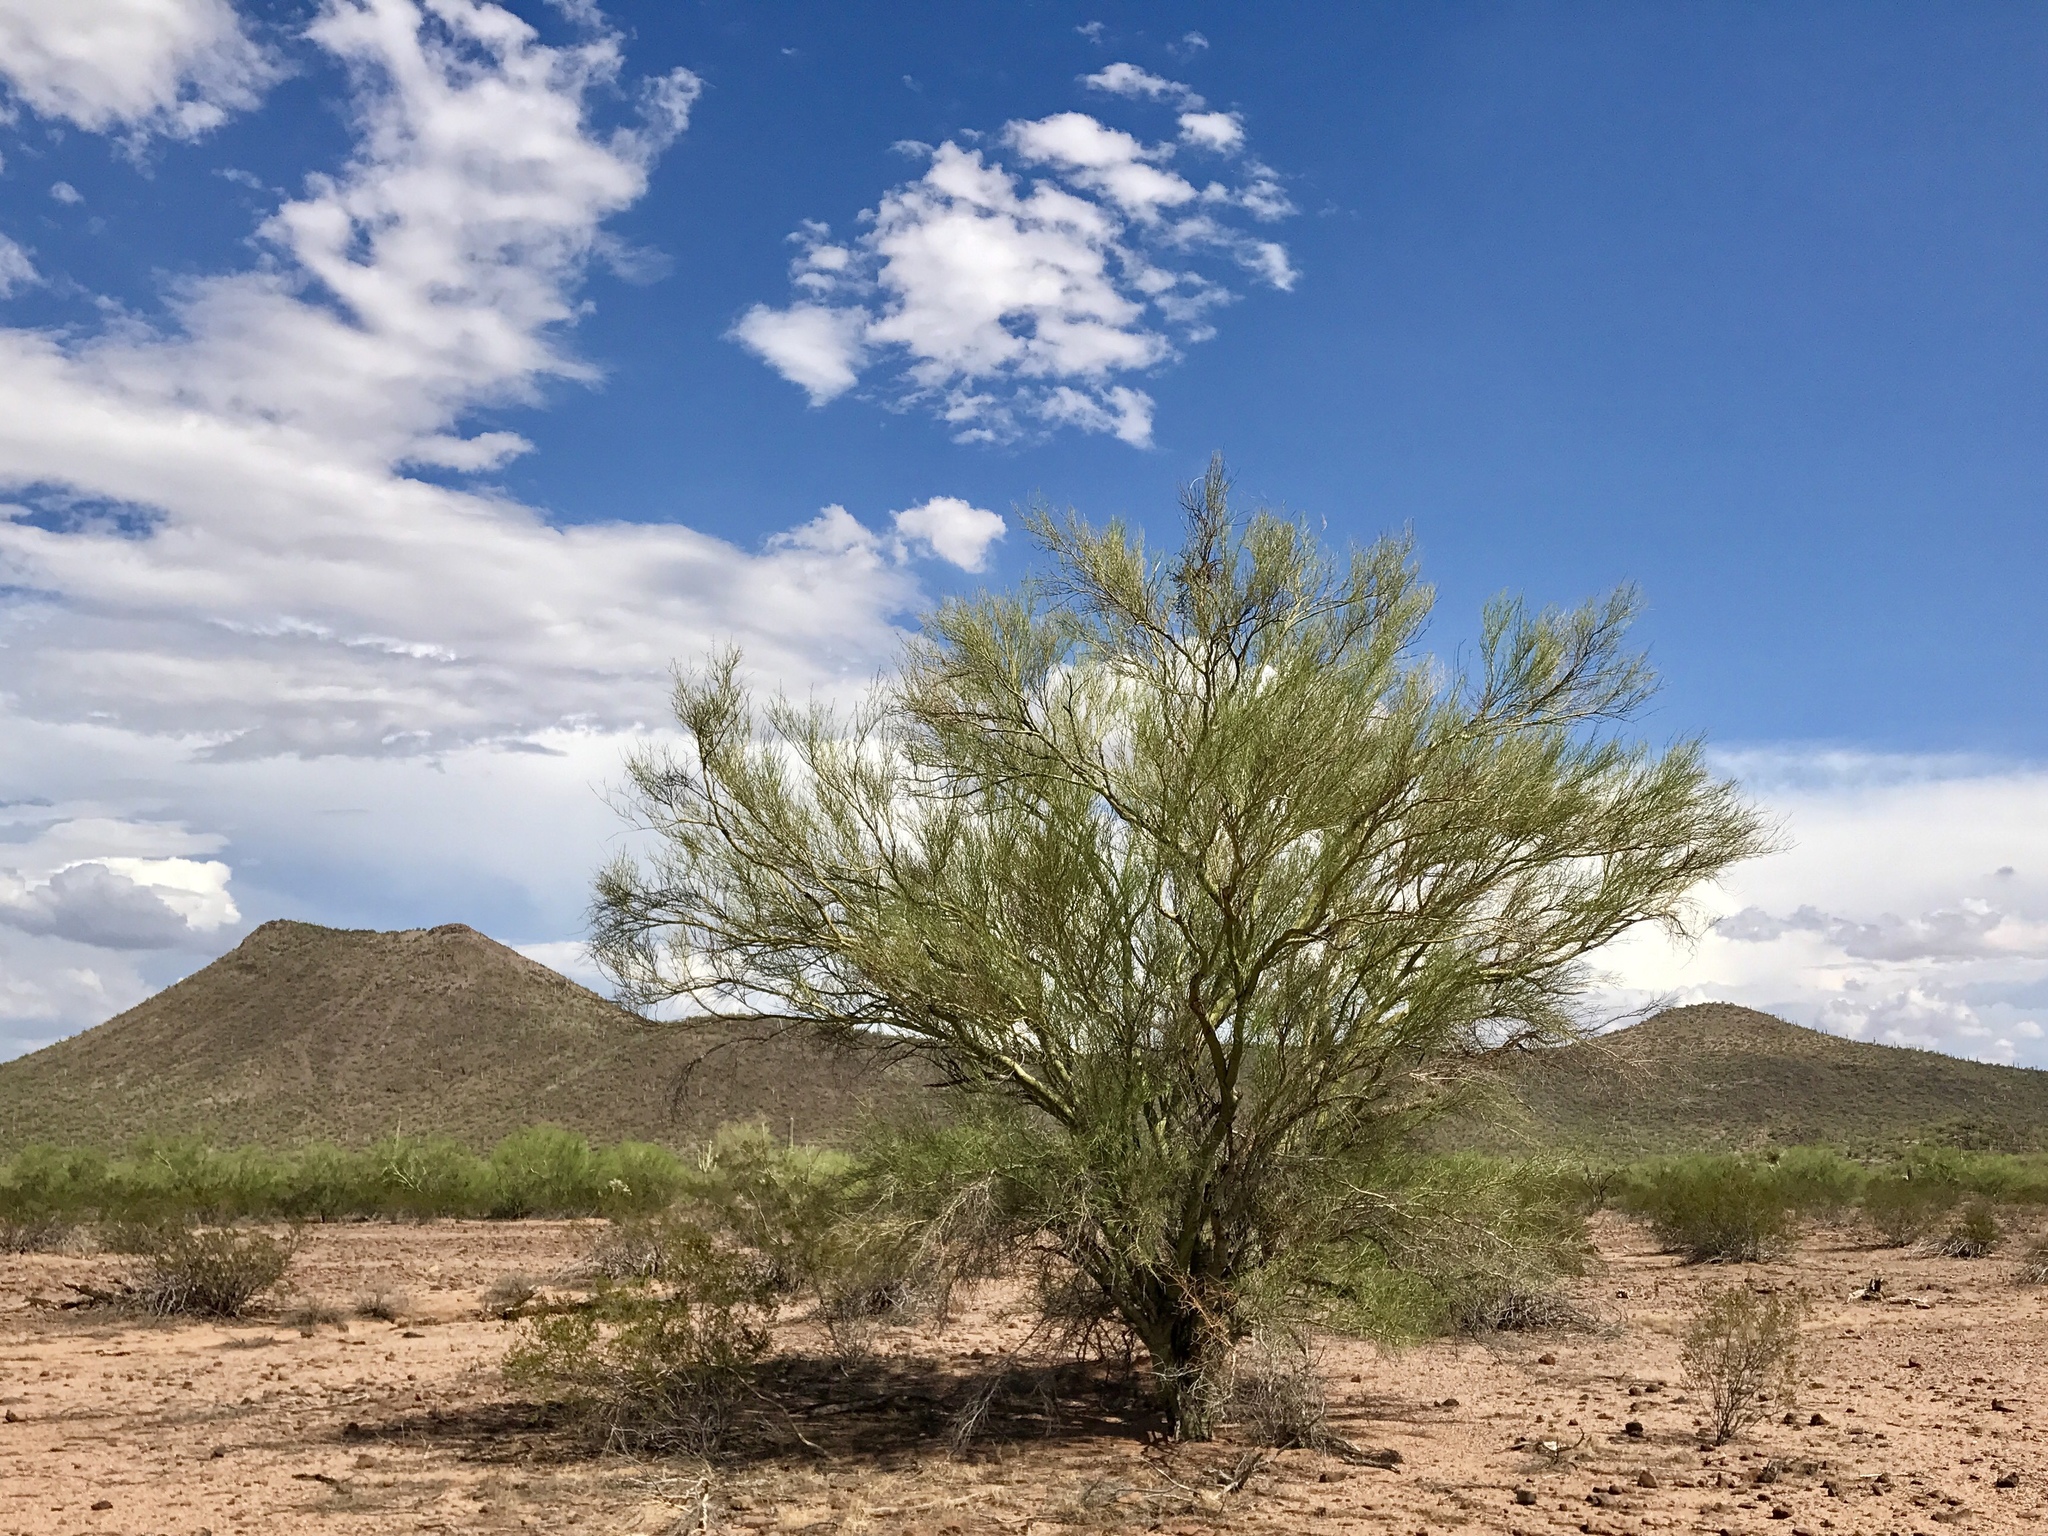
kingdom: Plantae
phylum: Tracheophyta
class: Magnoliopsida
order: Fabales
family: Fabaceae
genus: Parkinsonia
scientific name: Parkinsonia florida
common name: Blue paloverde
